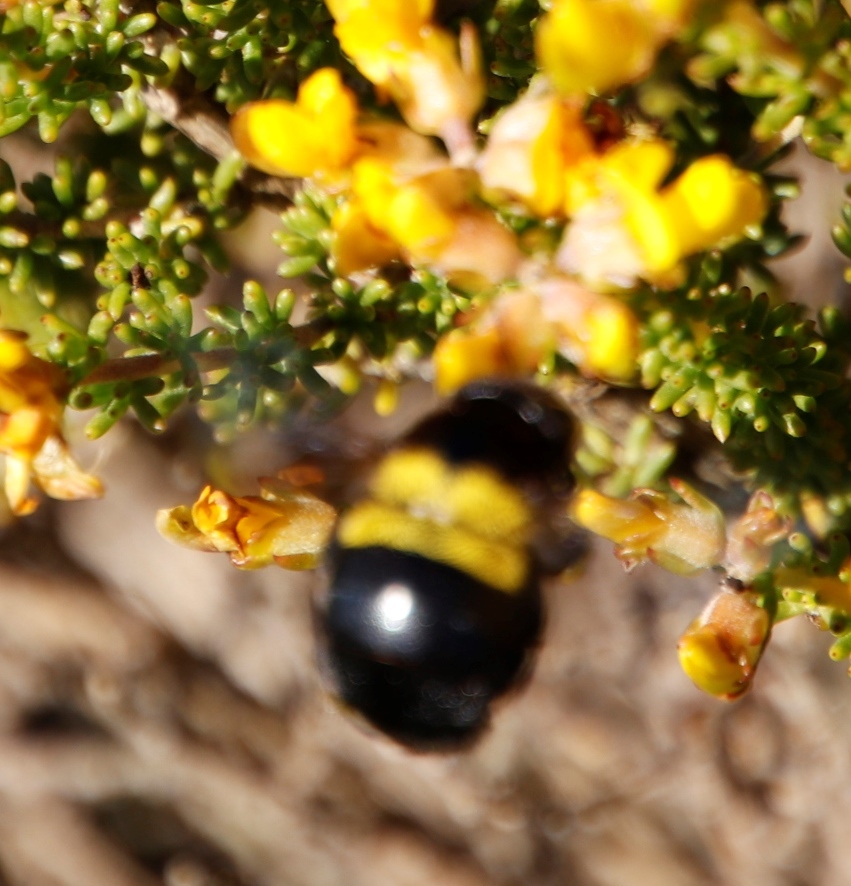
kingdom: Plantae
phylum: Tracheophyta
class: Magnoliopsida
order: Fabales
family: Fabaceae
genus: Aspalathus
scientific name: Aspalathus carnosa
